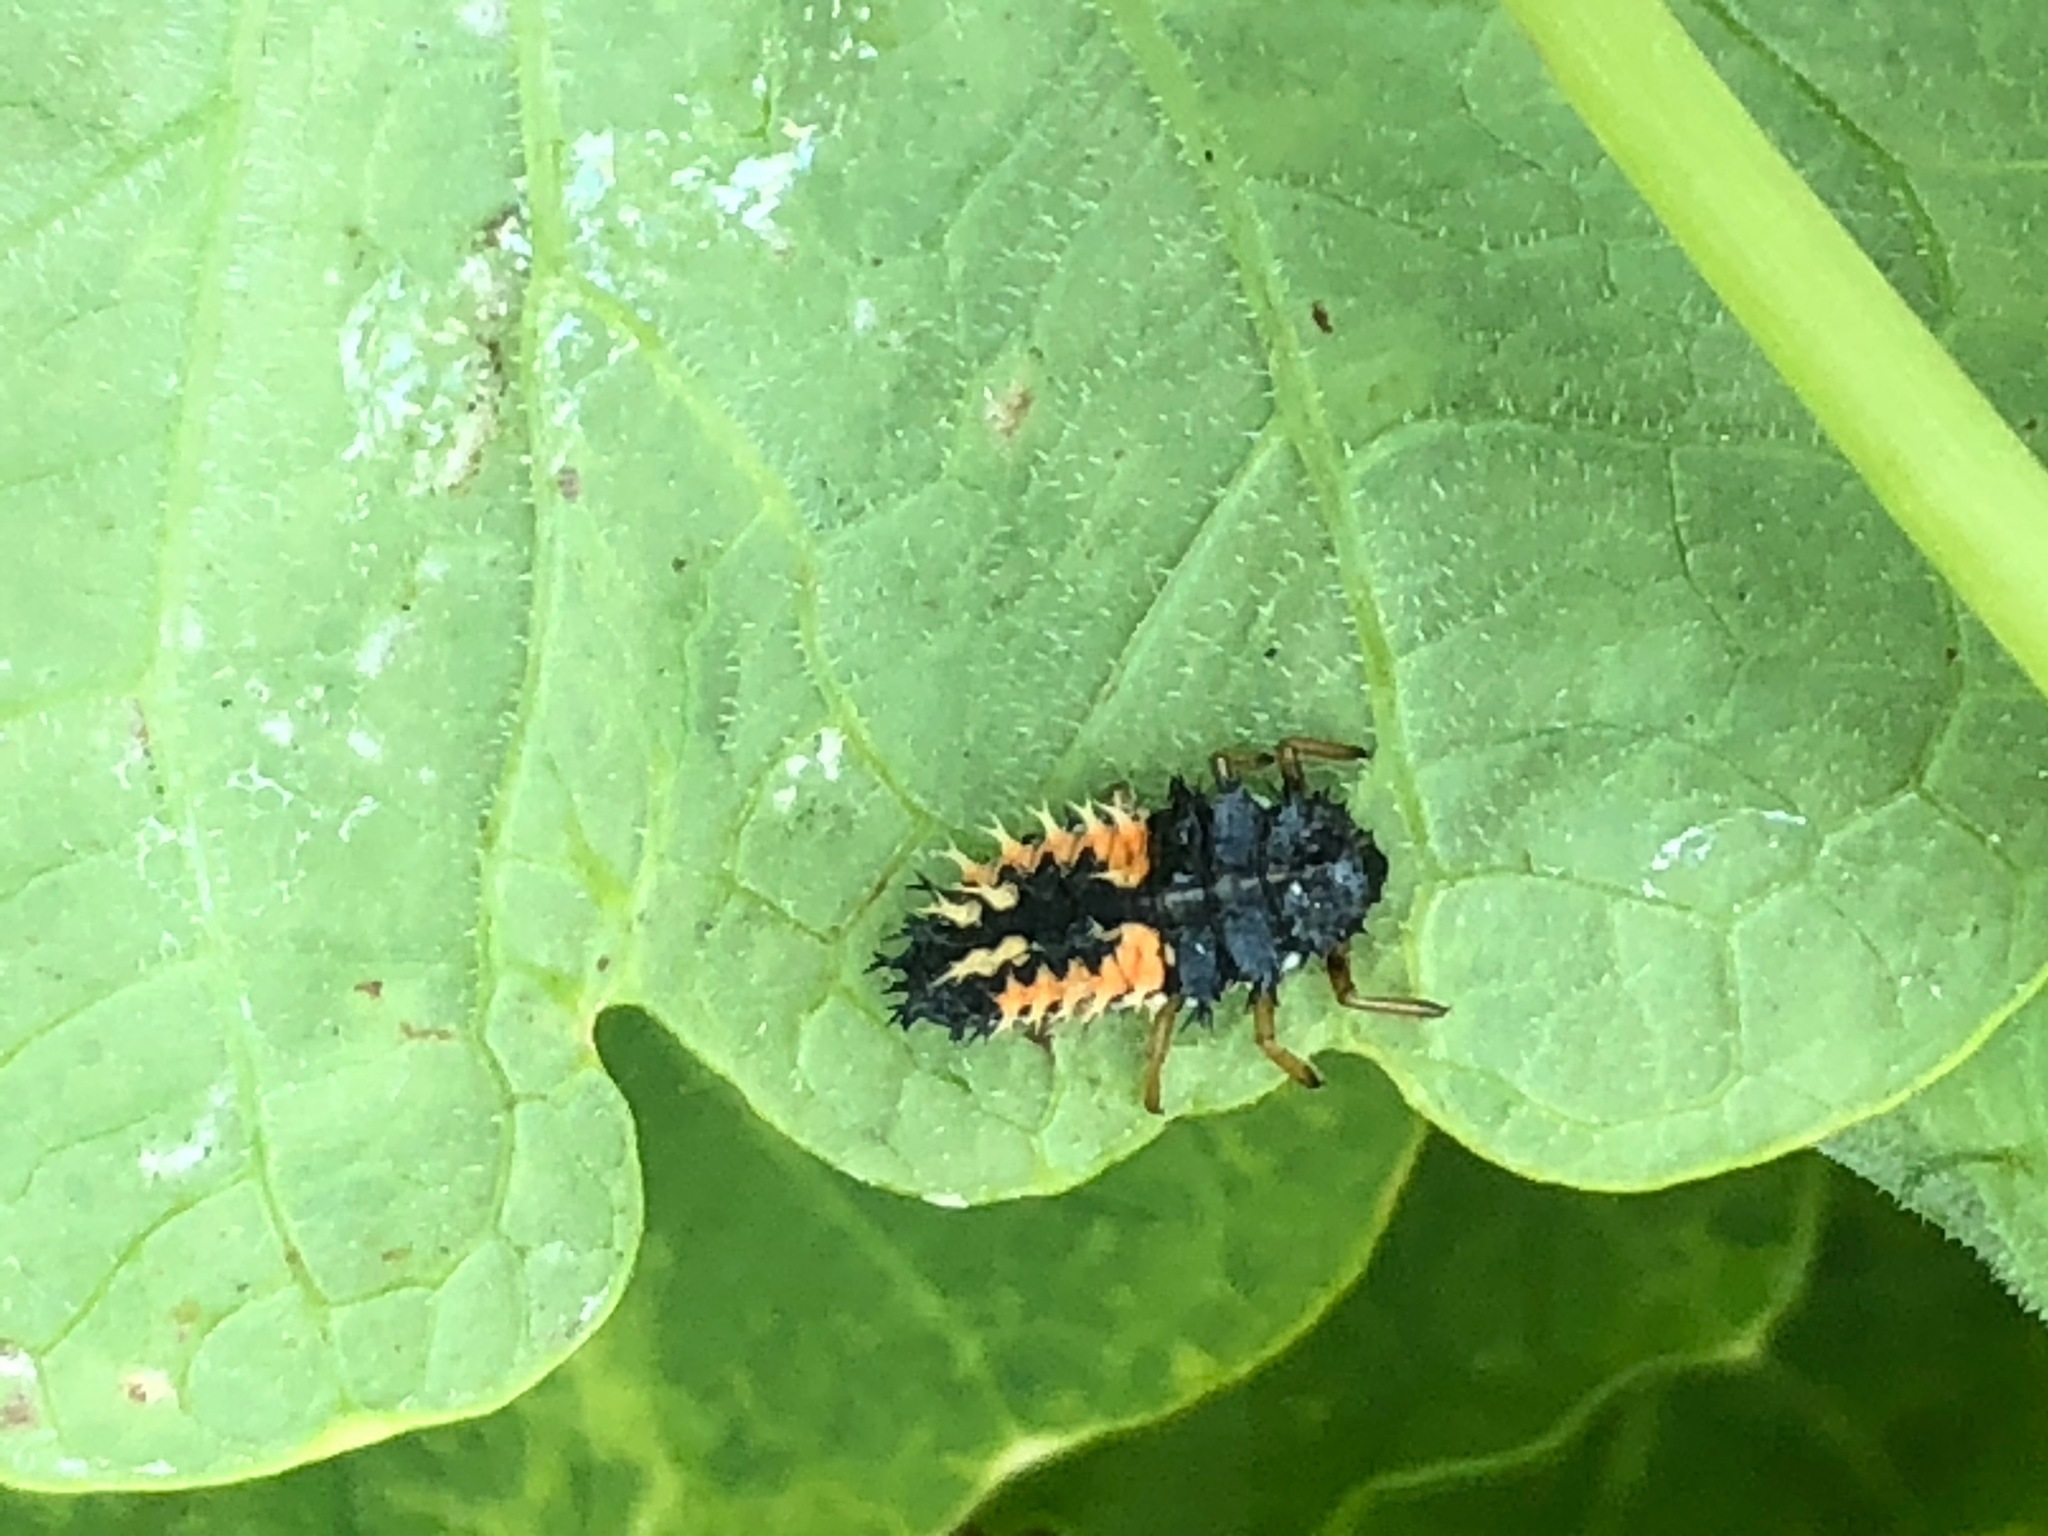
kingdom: Animalia
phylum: Arthropoda
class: Insecta
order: Coleoptera
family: Coccinellidae
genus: Harmonia
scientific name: Harmonia axyridis
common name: Harlequin ladybird
